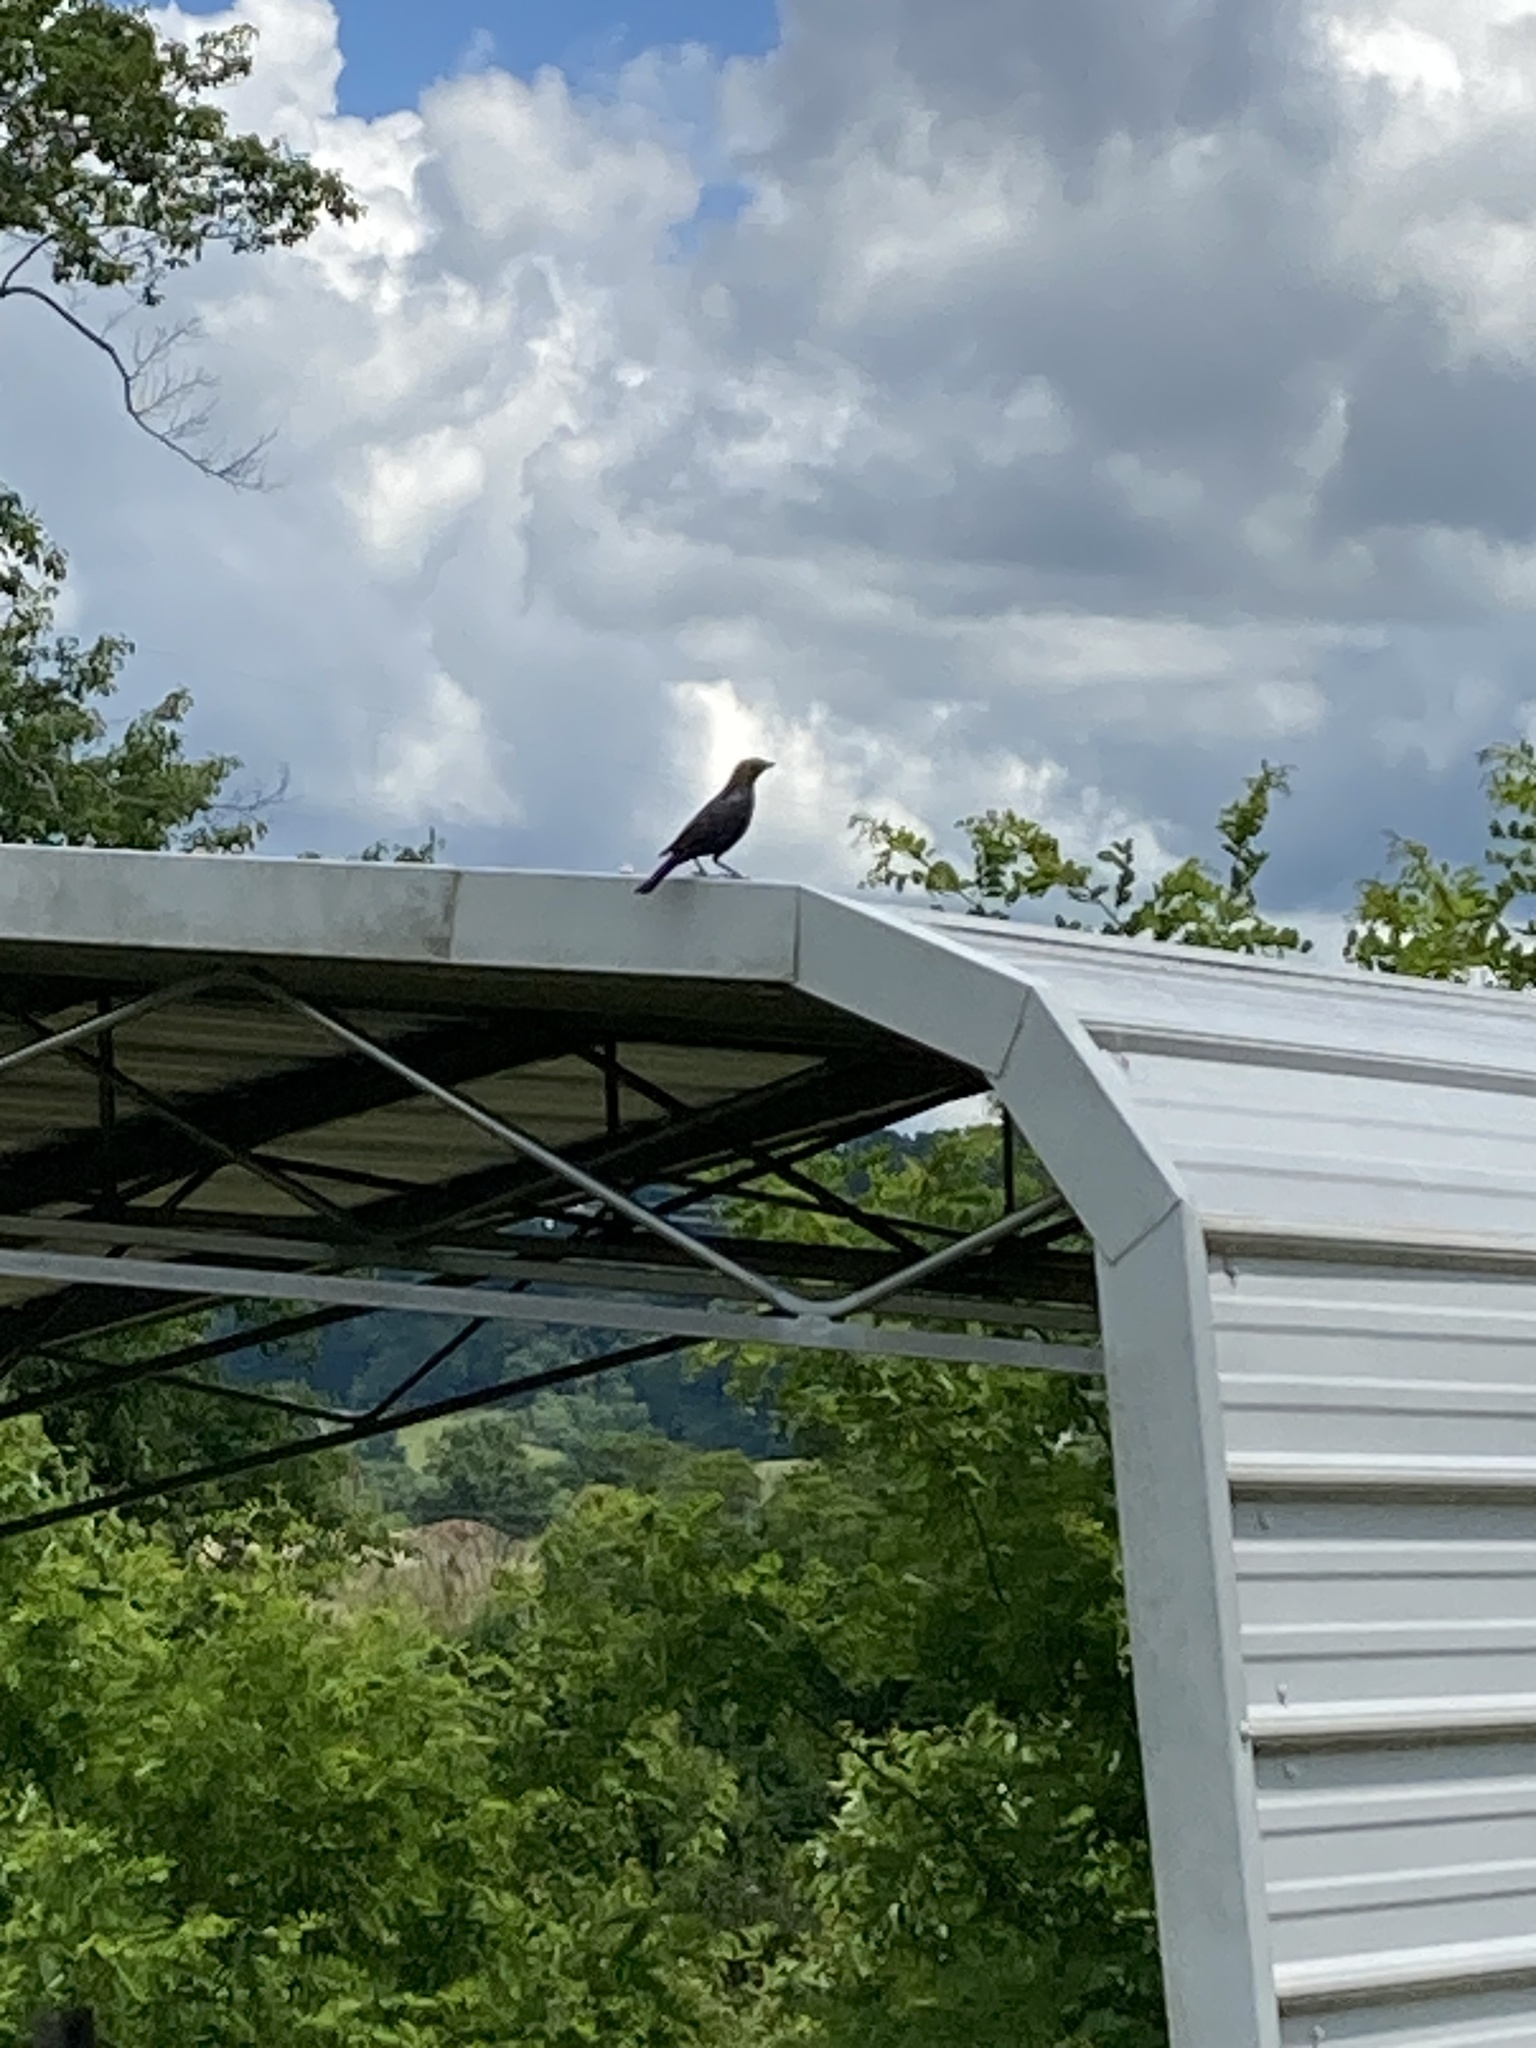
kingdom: Animalia
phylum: Chordata
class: Aves
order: Passeriformes
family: Icteridae
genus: Molothrus
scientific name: Molothrus ater
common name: Brown-headed cowbird
